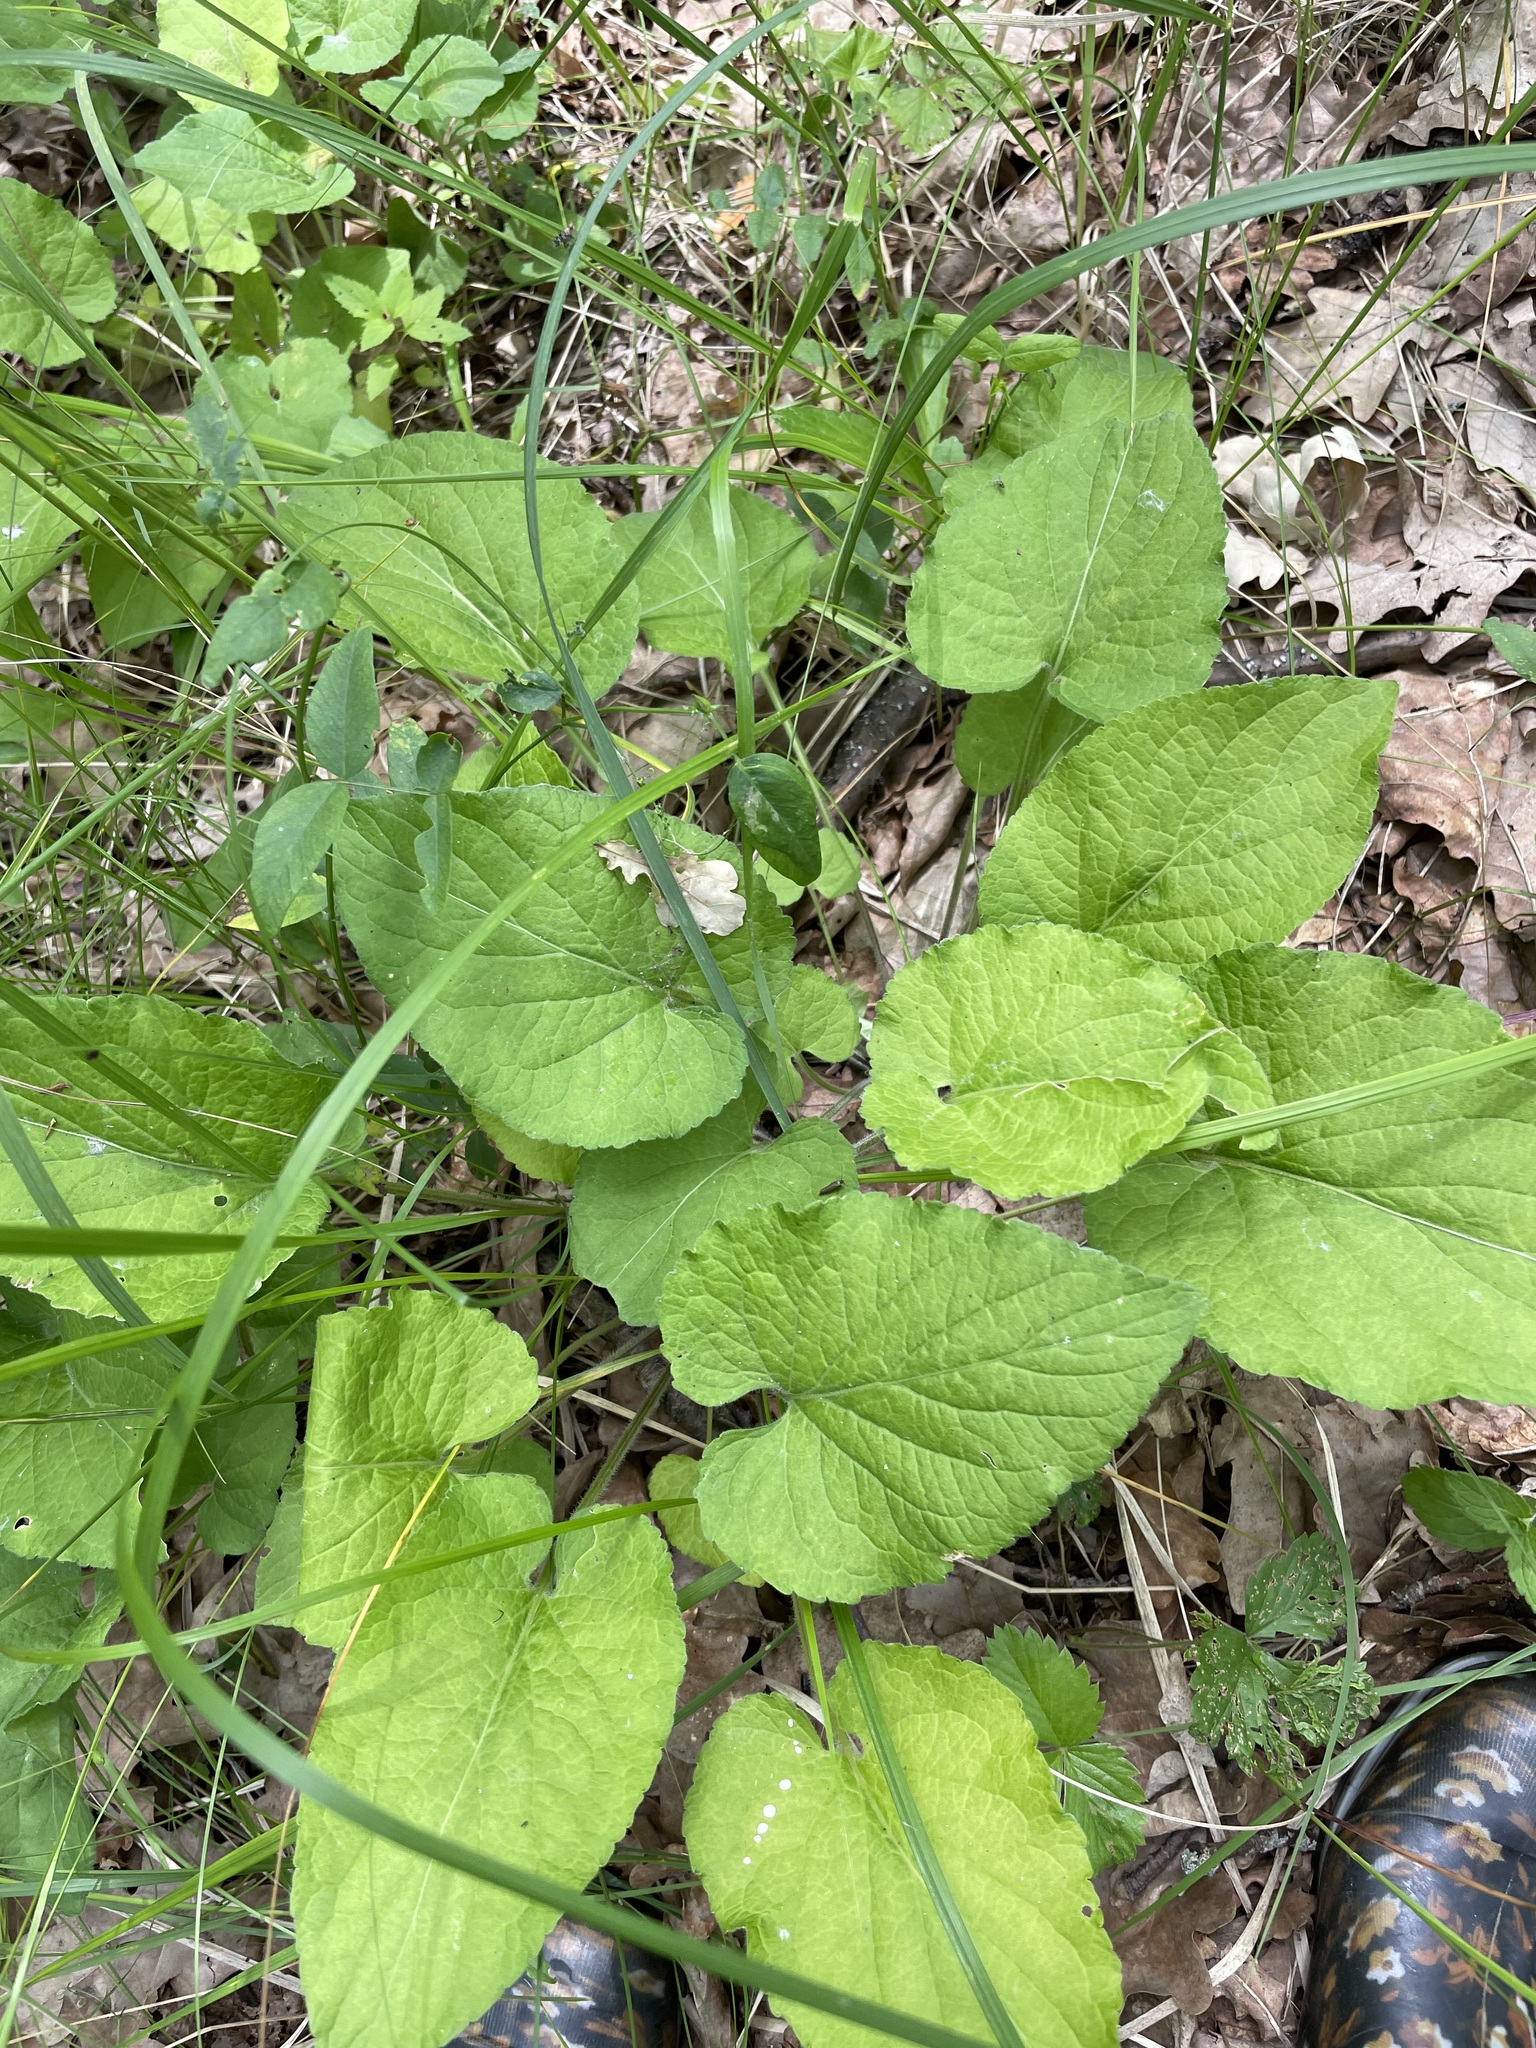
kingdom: Plantae
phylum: Tracheophyta
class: Magnoliopsida
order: Malpighiales
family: Violaceae
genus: Viola
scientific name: Viola hirta
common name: Hairy violet
